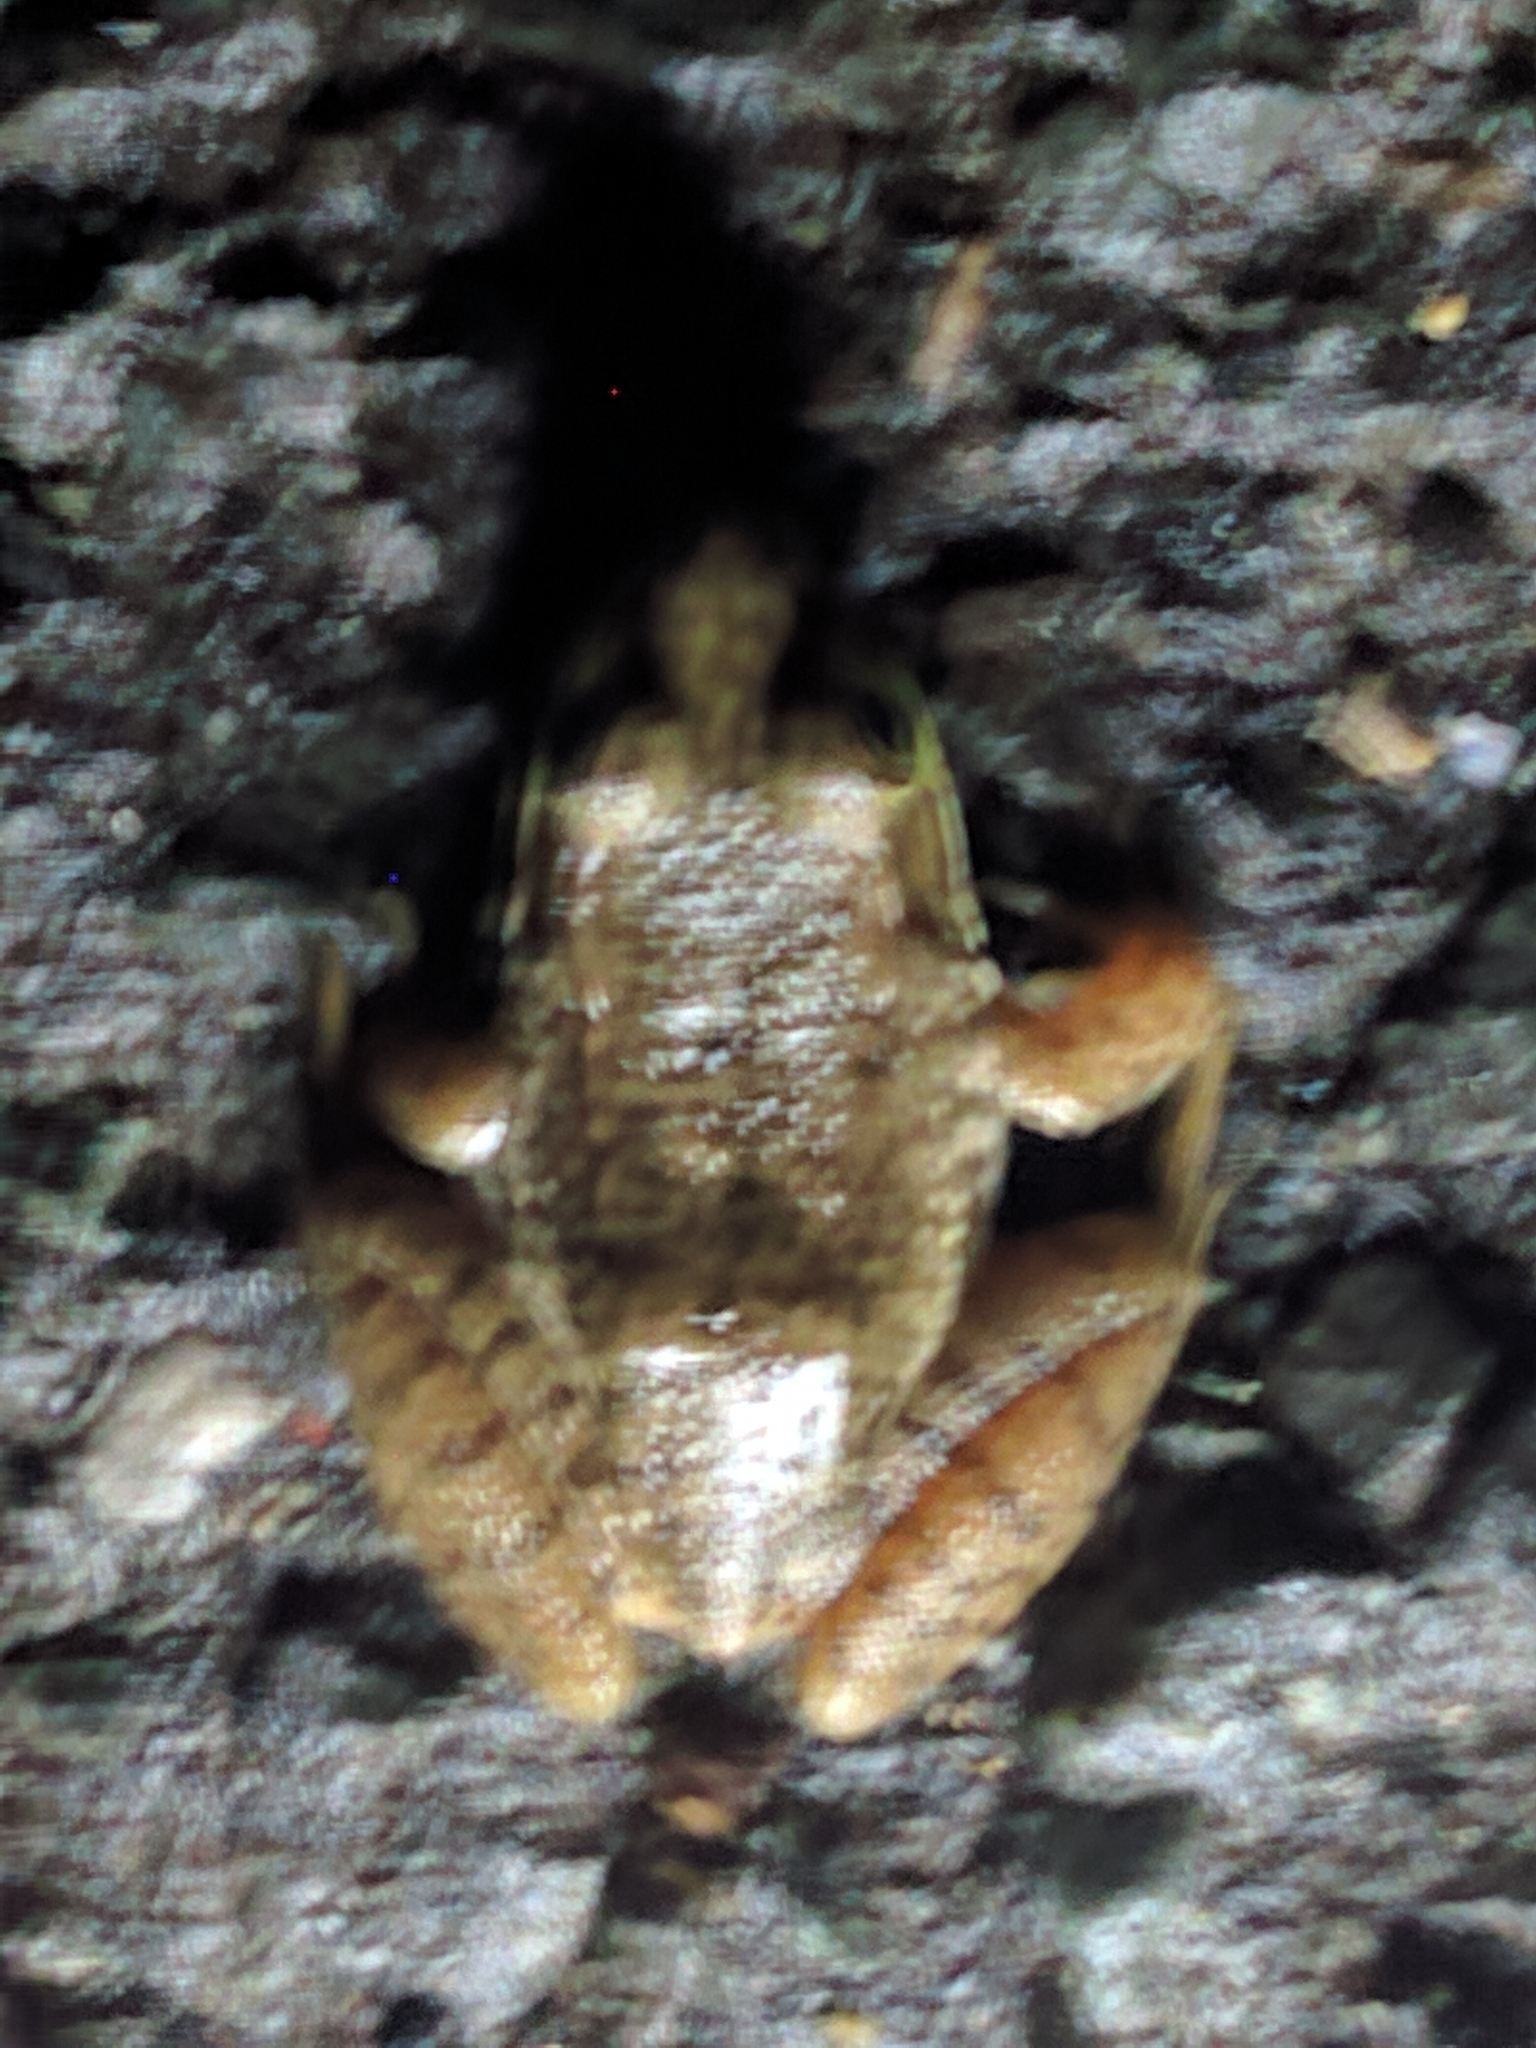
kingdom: Animalia
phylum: Chordata
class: Amphibia
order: Anura
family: Ranidae
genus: Lithobates
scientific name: Lithobates clamitans
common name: Green frog
